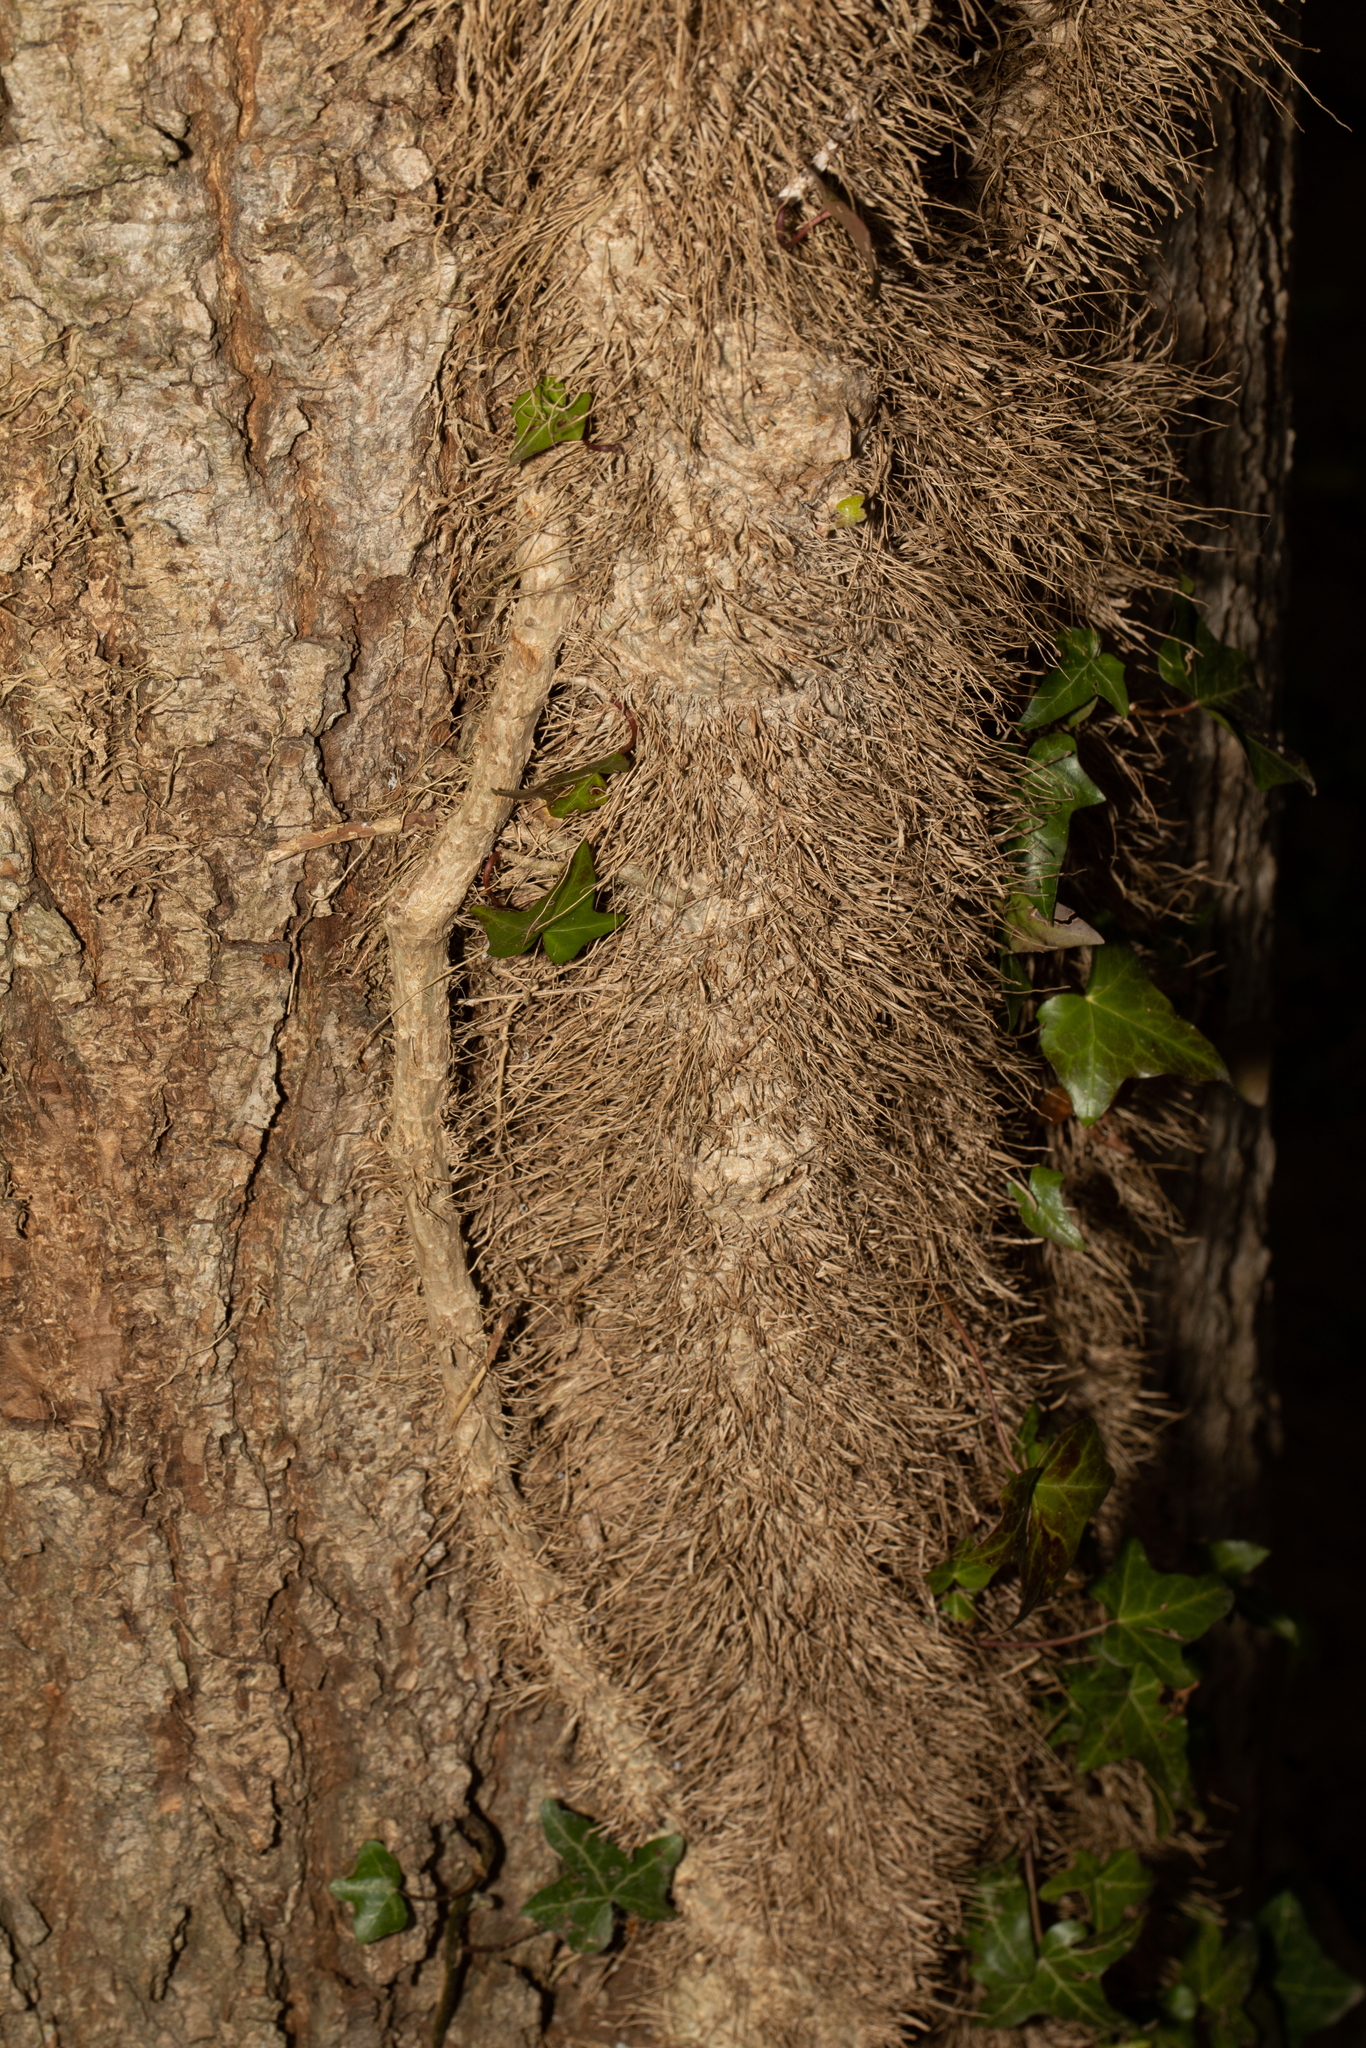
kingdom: Plantae
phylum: Tracheophyta
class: Magnoliopsida
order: Apiales
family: Araliaceae
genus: Hedera
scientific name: Hedera helix
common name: Ivy
